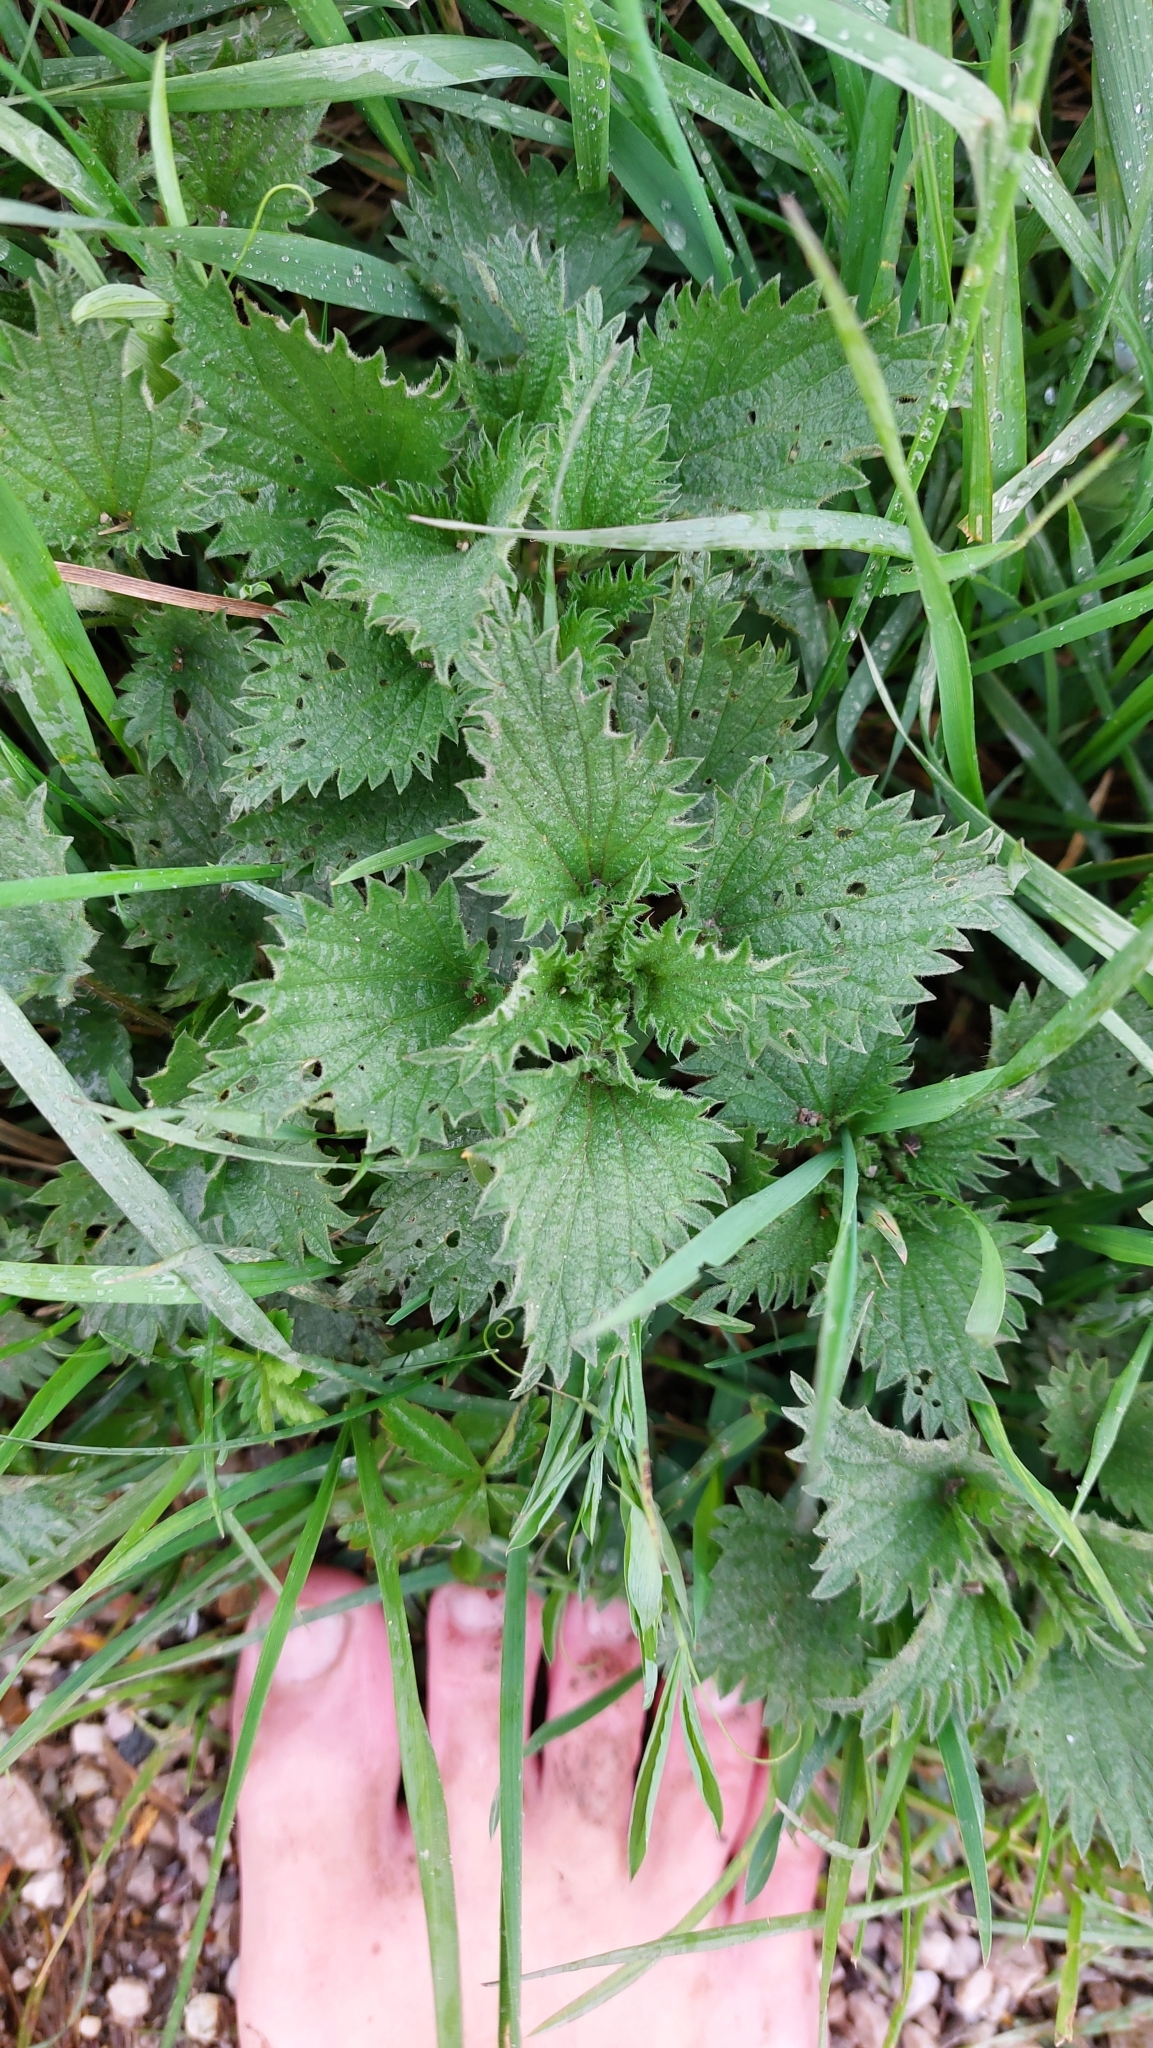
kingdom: Plantae
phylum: Tracheophyta
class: Magnoliopsida
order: Rosales
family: Urticaceae
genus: Urtica
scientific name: Urtica dioica
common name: Common nettle
